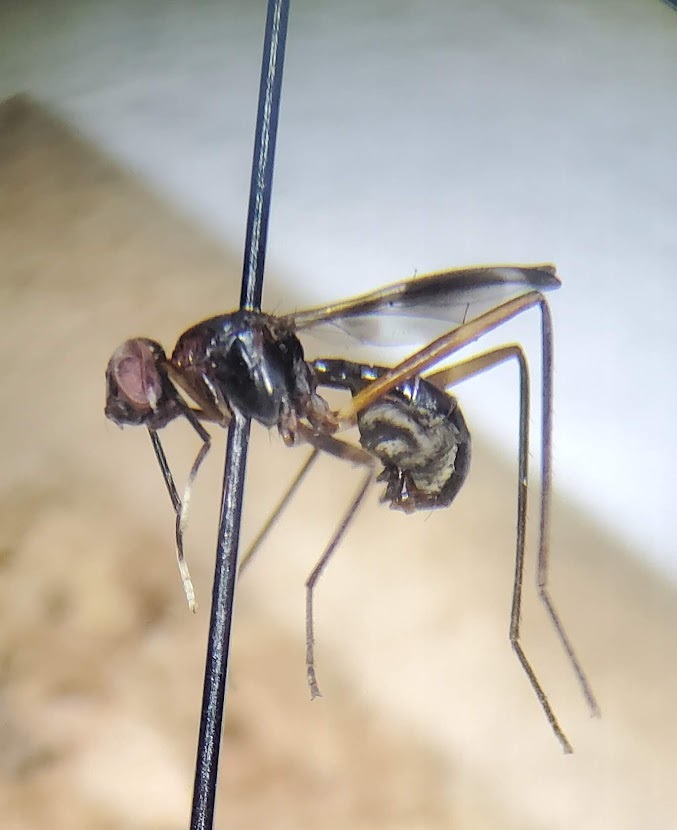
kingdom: Animalia
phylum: Arthropoda
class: Insecta
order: Diptera
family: Micropezidae
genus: Taeniaptera
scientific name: Taeniaptera trivittata
